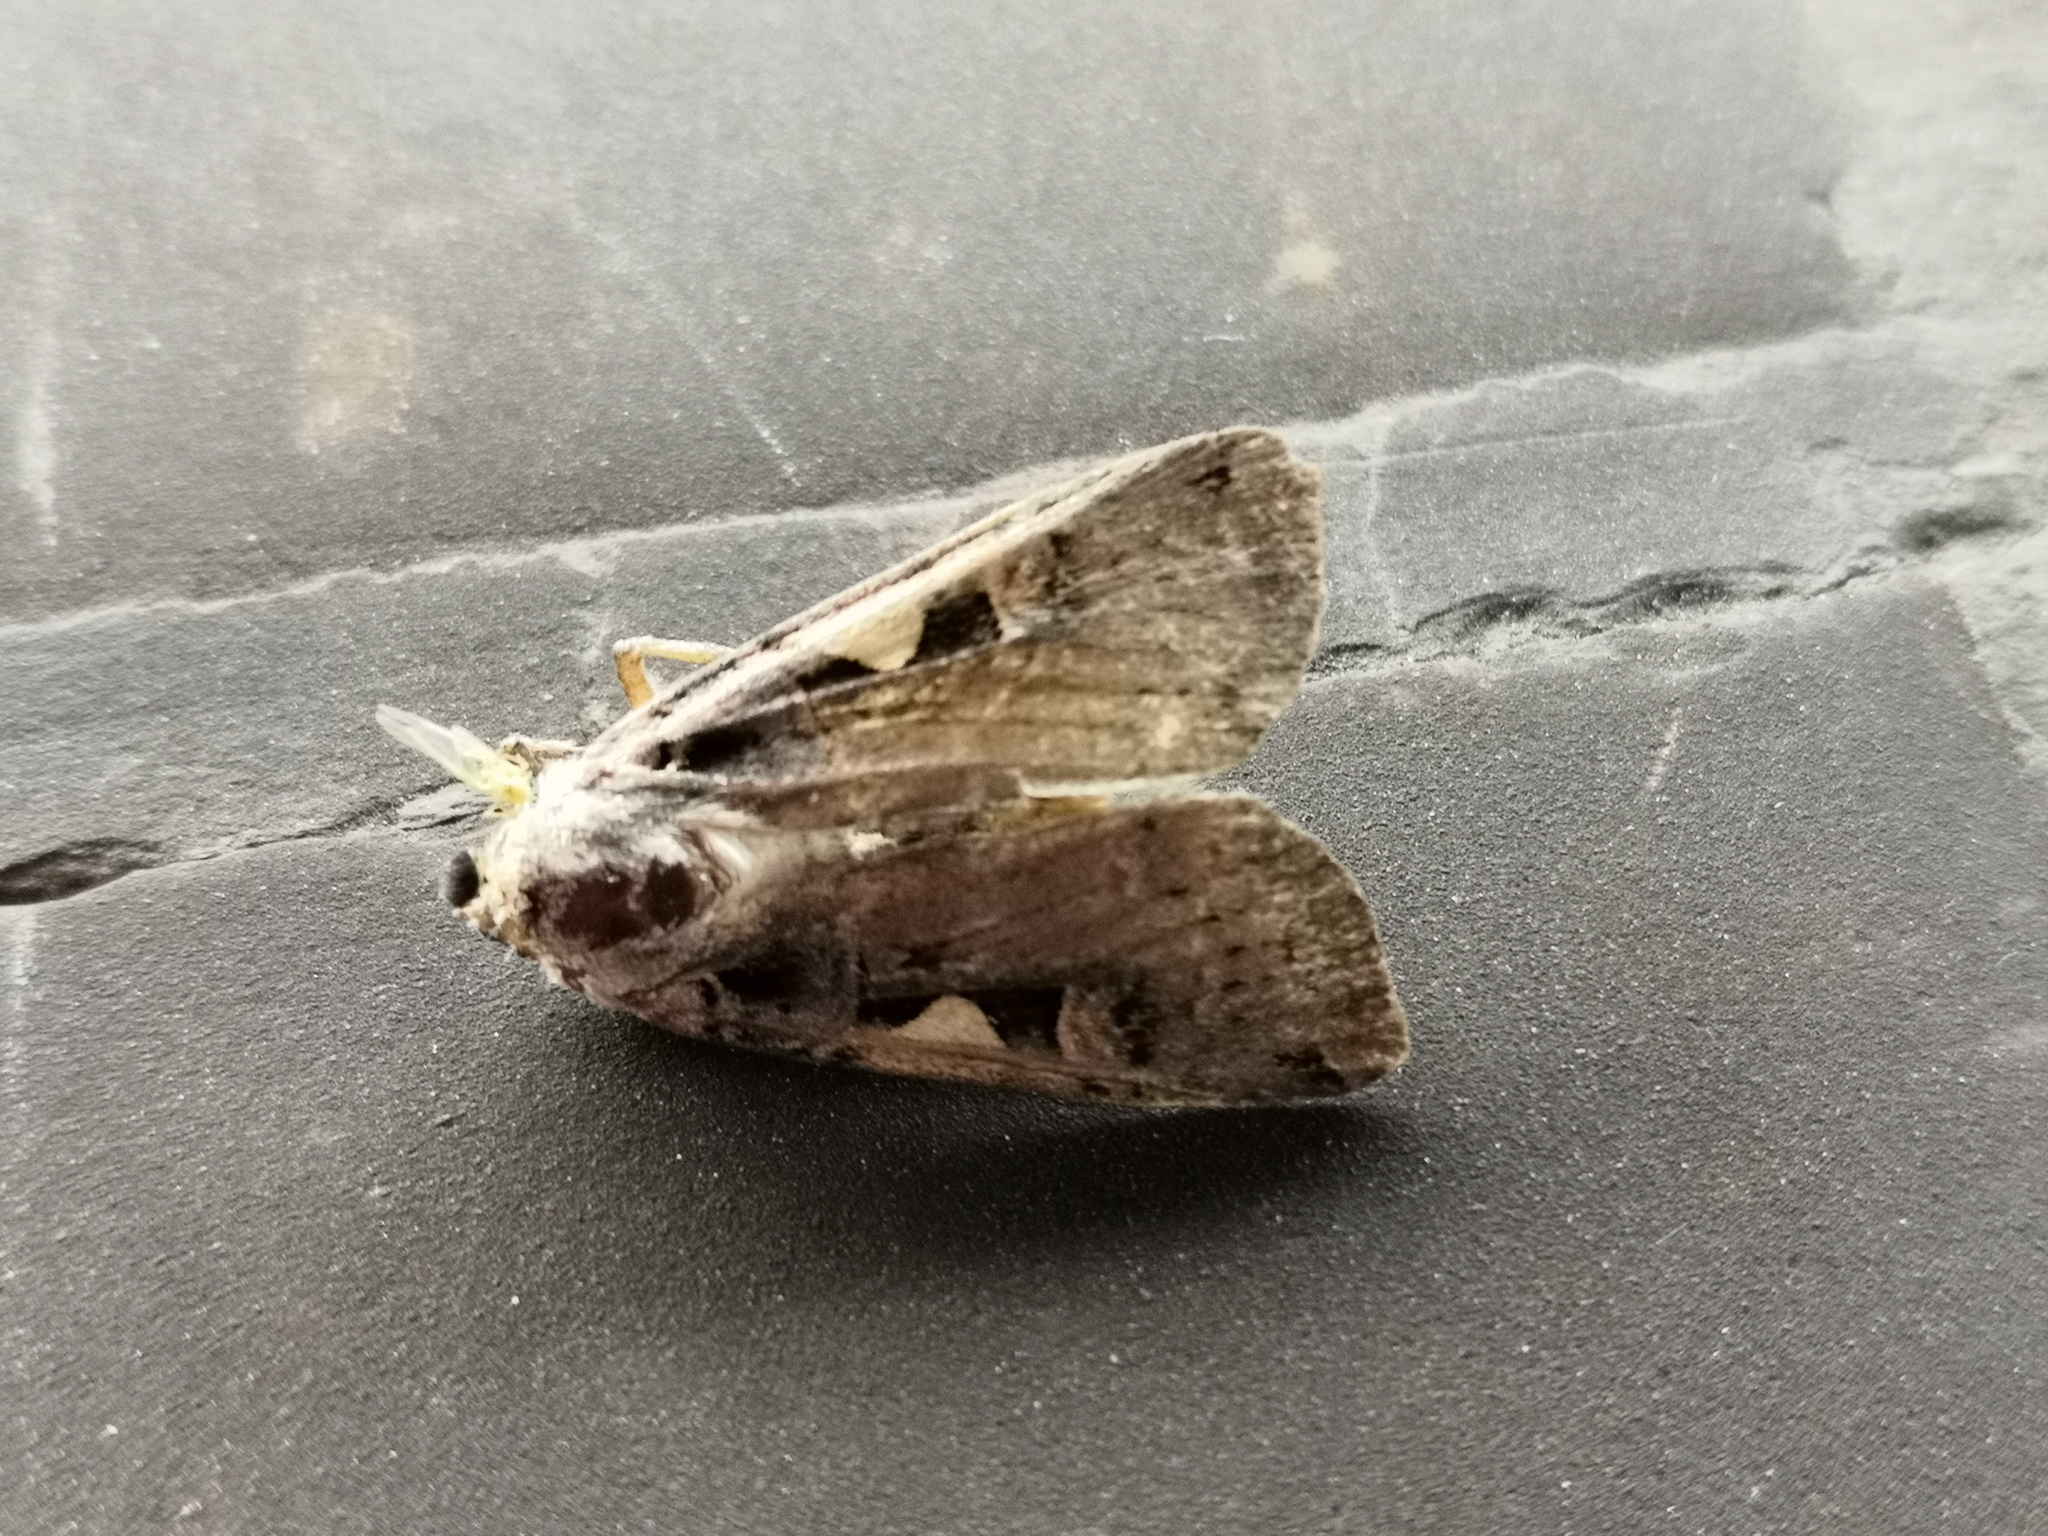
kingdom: Animalia
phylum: Arthropoda
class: Insecta
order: Lepidoptera
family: Noctuidae
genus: Xestia
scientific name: Xestia c-nigrum
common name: Setaceous hebrew character
